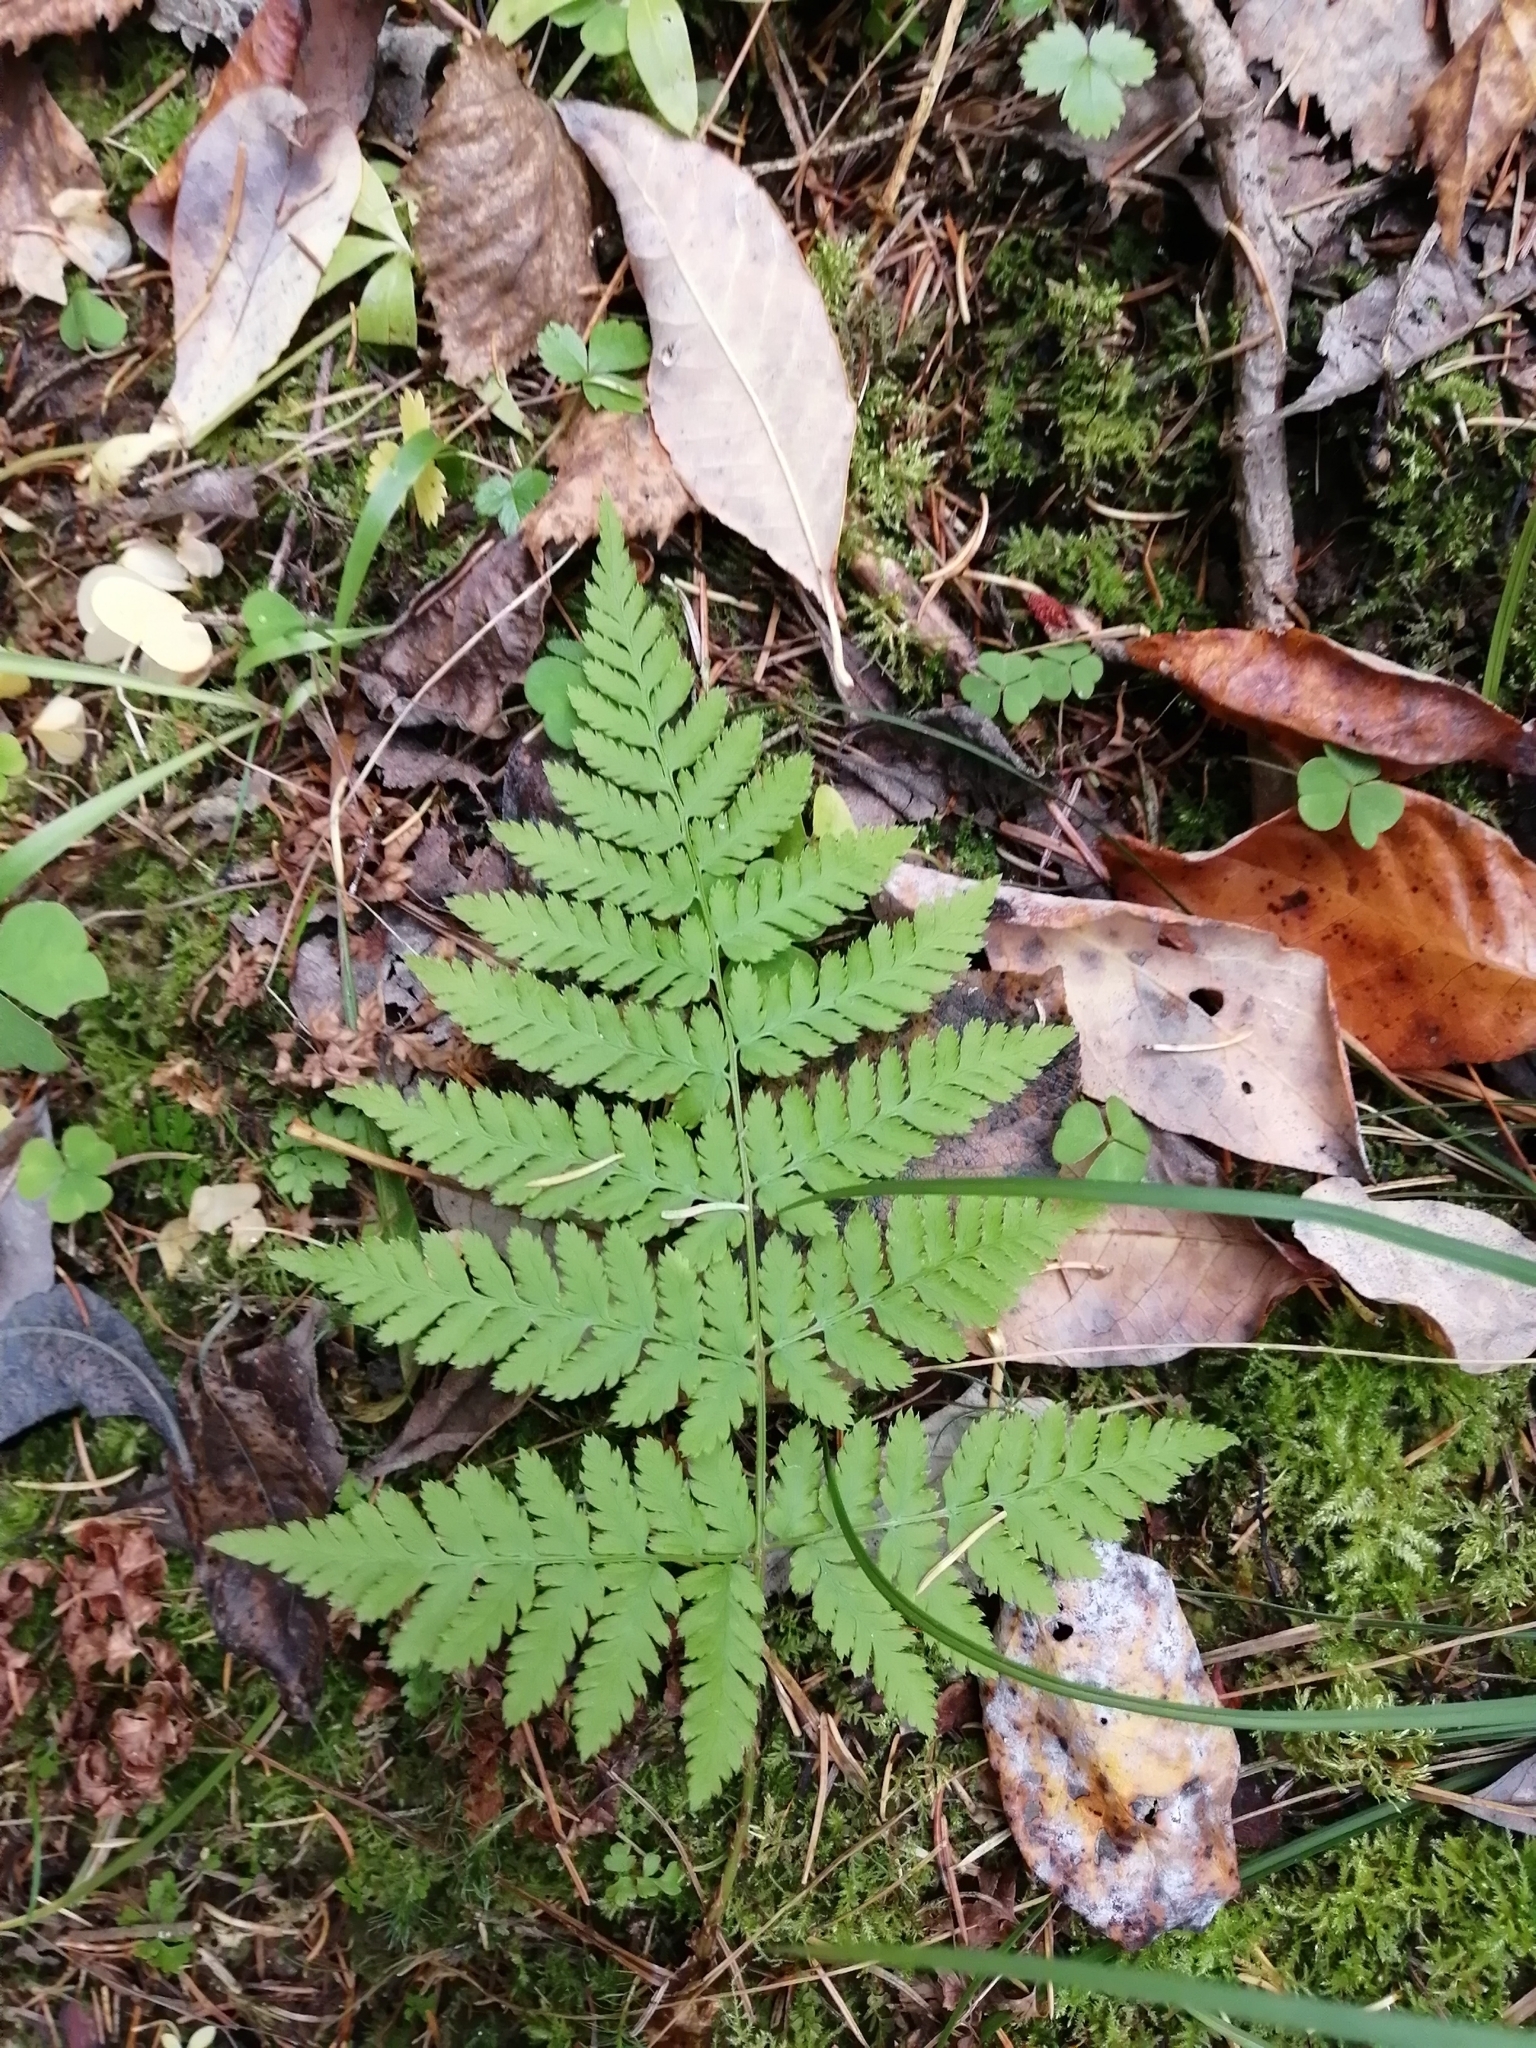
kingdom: Plantae
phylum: Tracheophyta
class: Polypodiopsida
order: Polypodiales
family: Dryopteridaceae
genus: Dryopteris
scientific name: Dryopteris carthusiana
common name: Narrow buckler-fern
